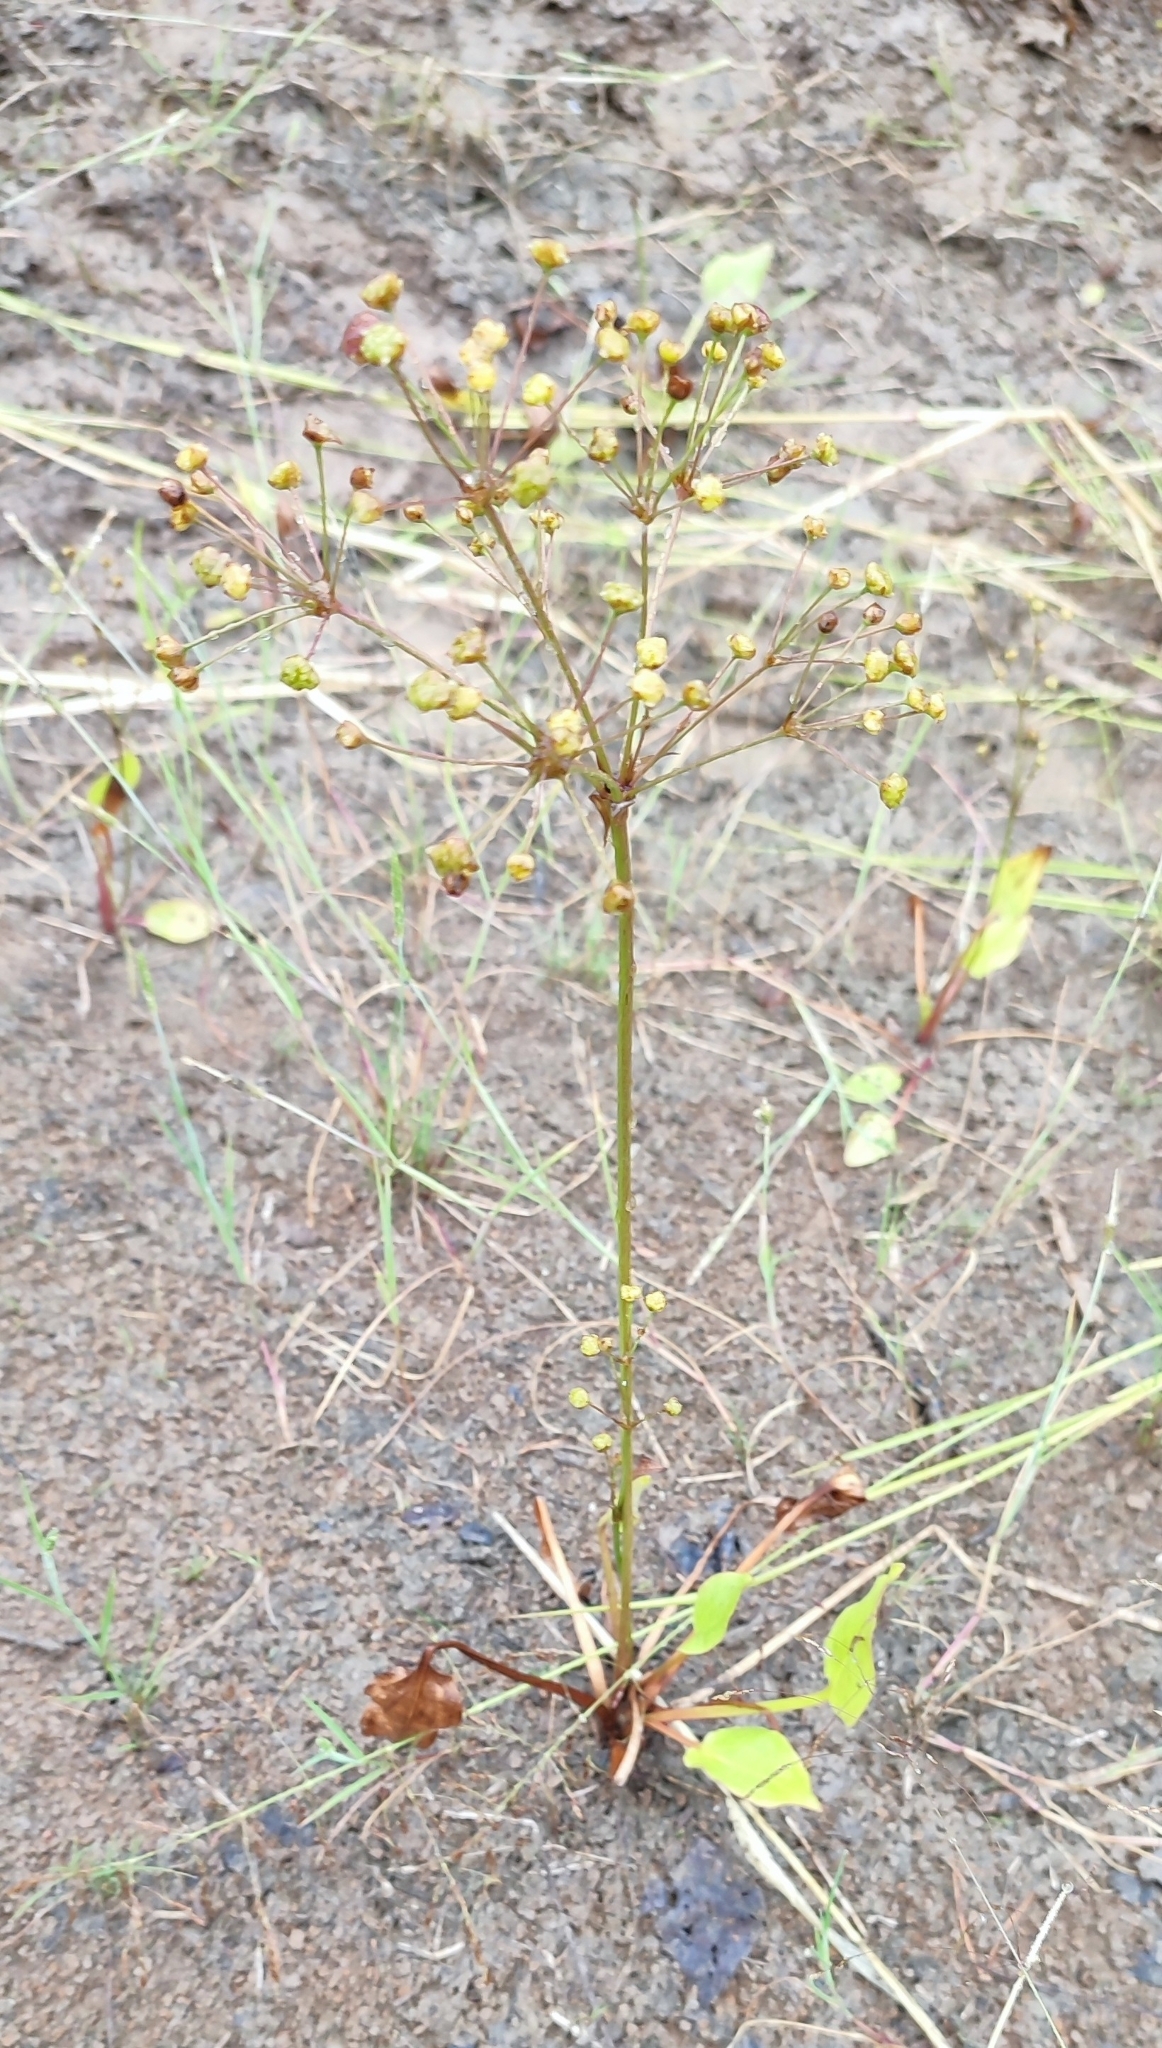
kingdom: Plantae
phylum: Tracheophyta
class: Liliopsida
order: Alismatales
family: Alismataceae
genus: Alisma
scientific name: Alisma plantago-aquatica
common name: Water-plantain
